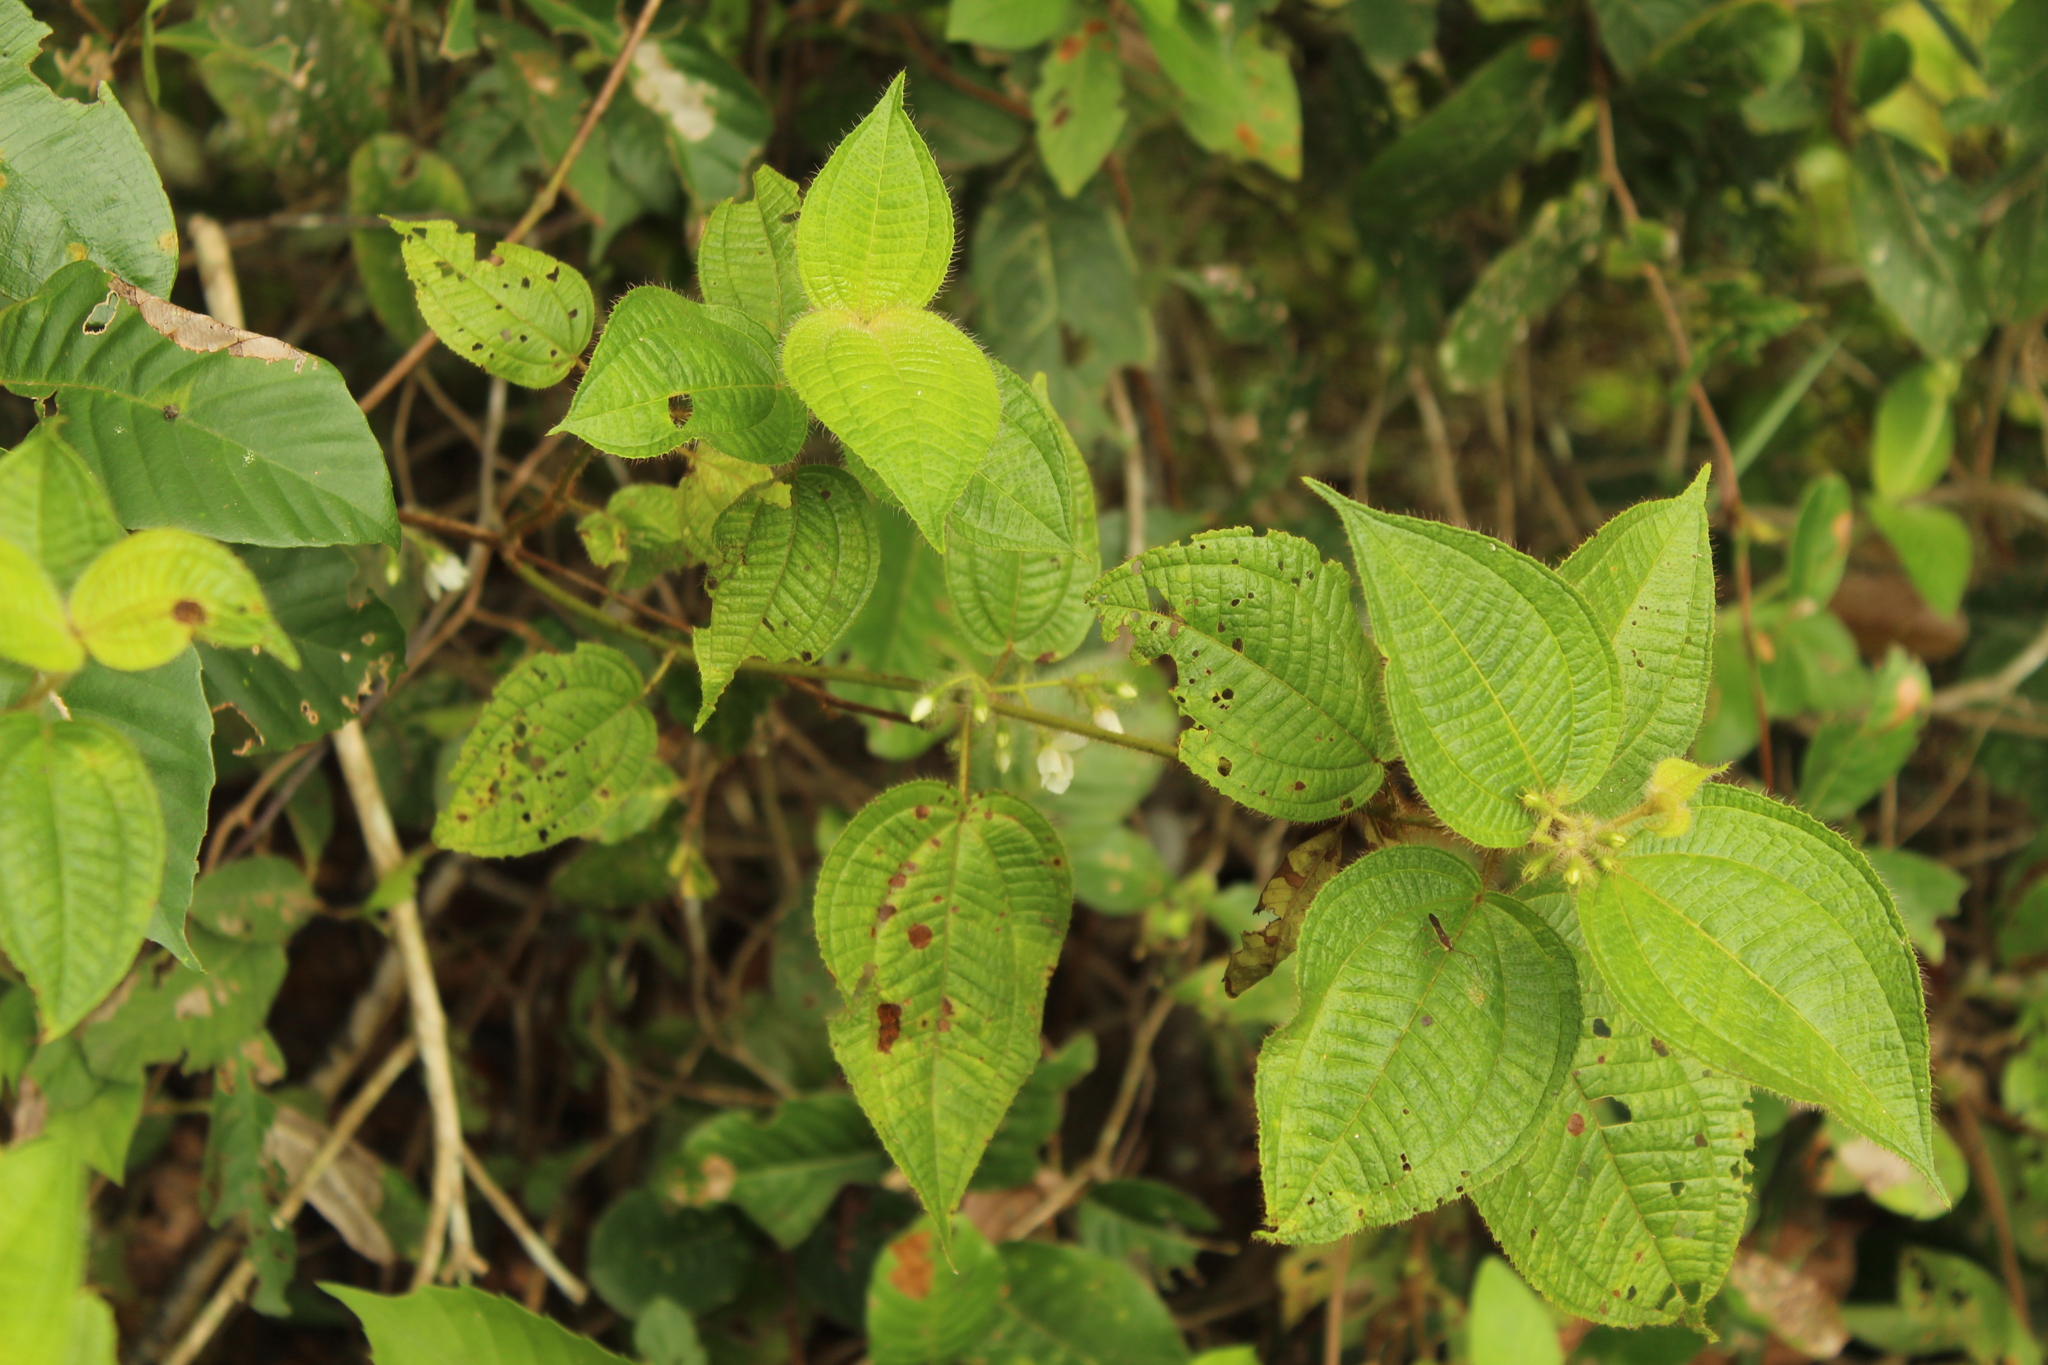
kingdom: Plantae
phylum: Tracheophyta
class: Magnoliopsida
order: Myrtales
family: Melastomataceae
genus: Miconia
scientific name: Miconia crenata
